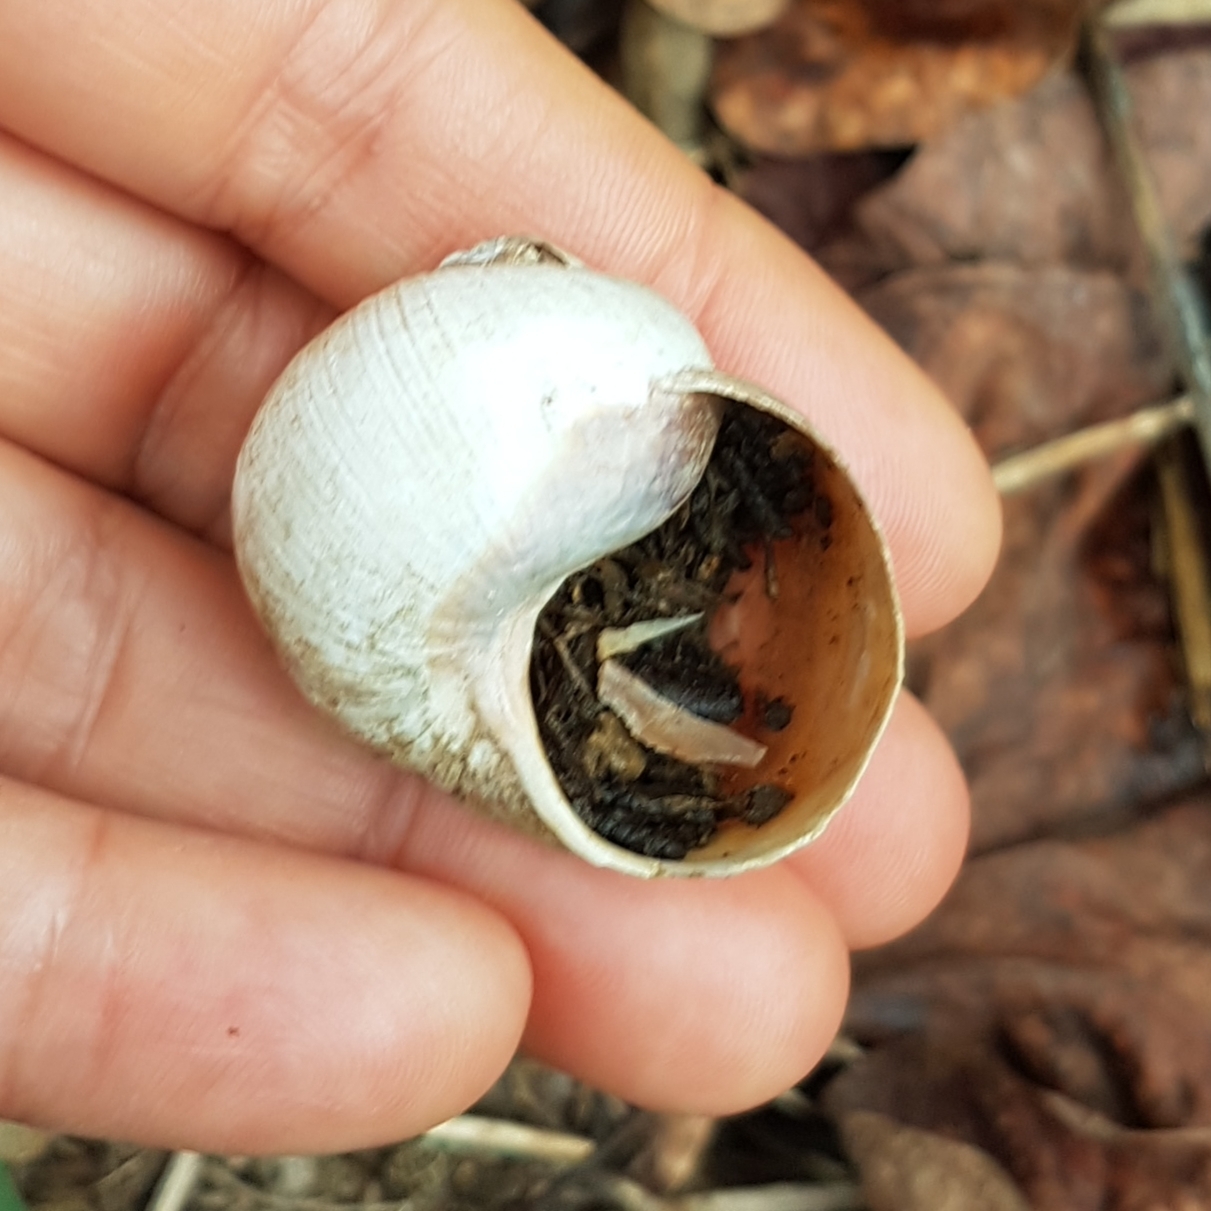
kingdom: Animalia
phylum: Mollusca
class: Gastropoda
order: Stylommatophora
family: Helicidae
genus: Helix
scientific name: Helix melanostoma
